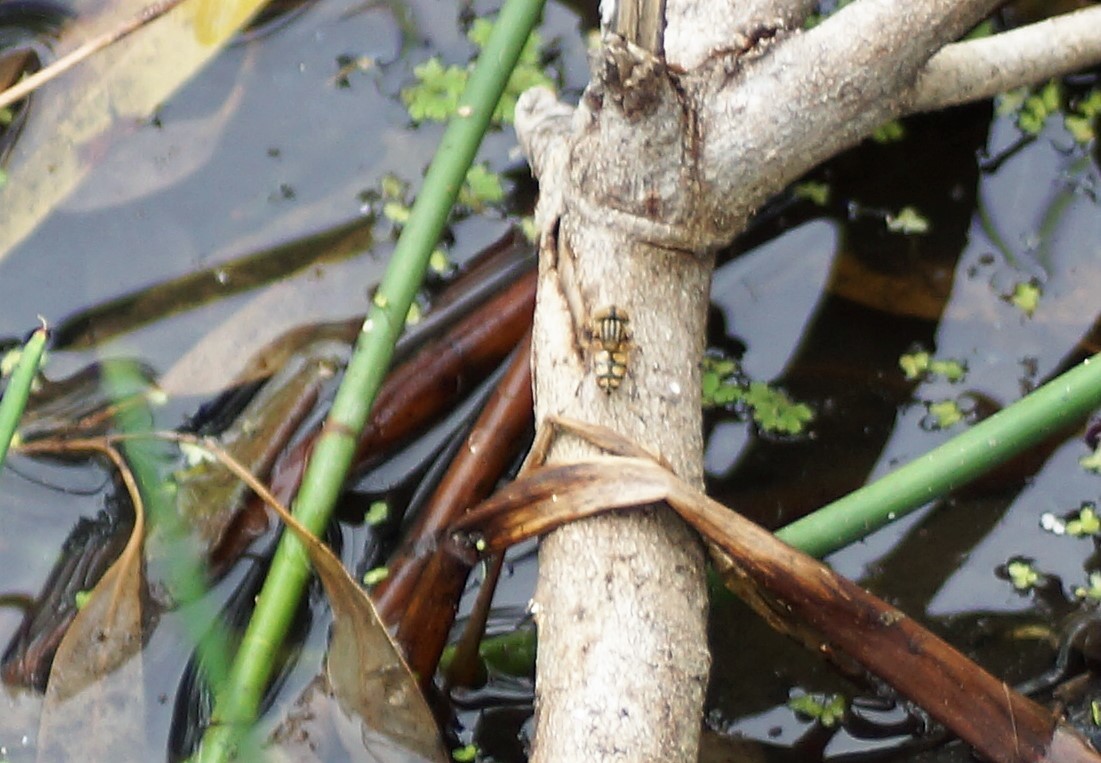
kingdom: Animalia
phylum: Arthropoda
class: Insecta
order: Diptera
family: Syrphidae
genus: Eristalinus
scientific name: Eristalinus punctulatus
